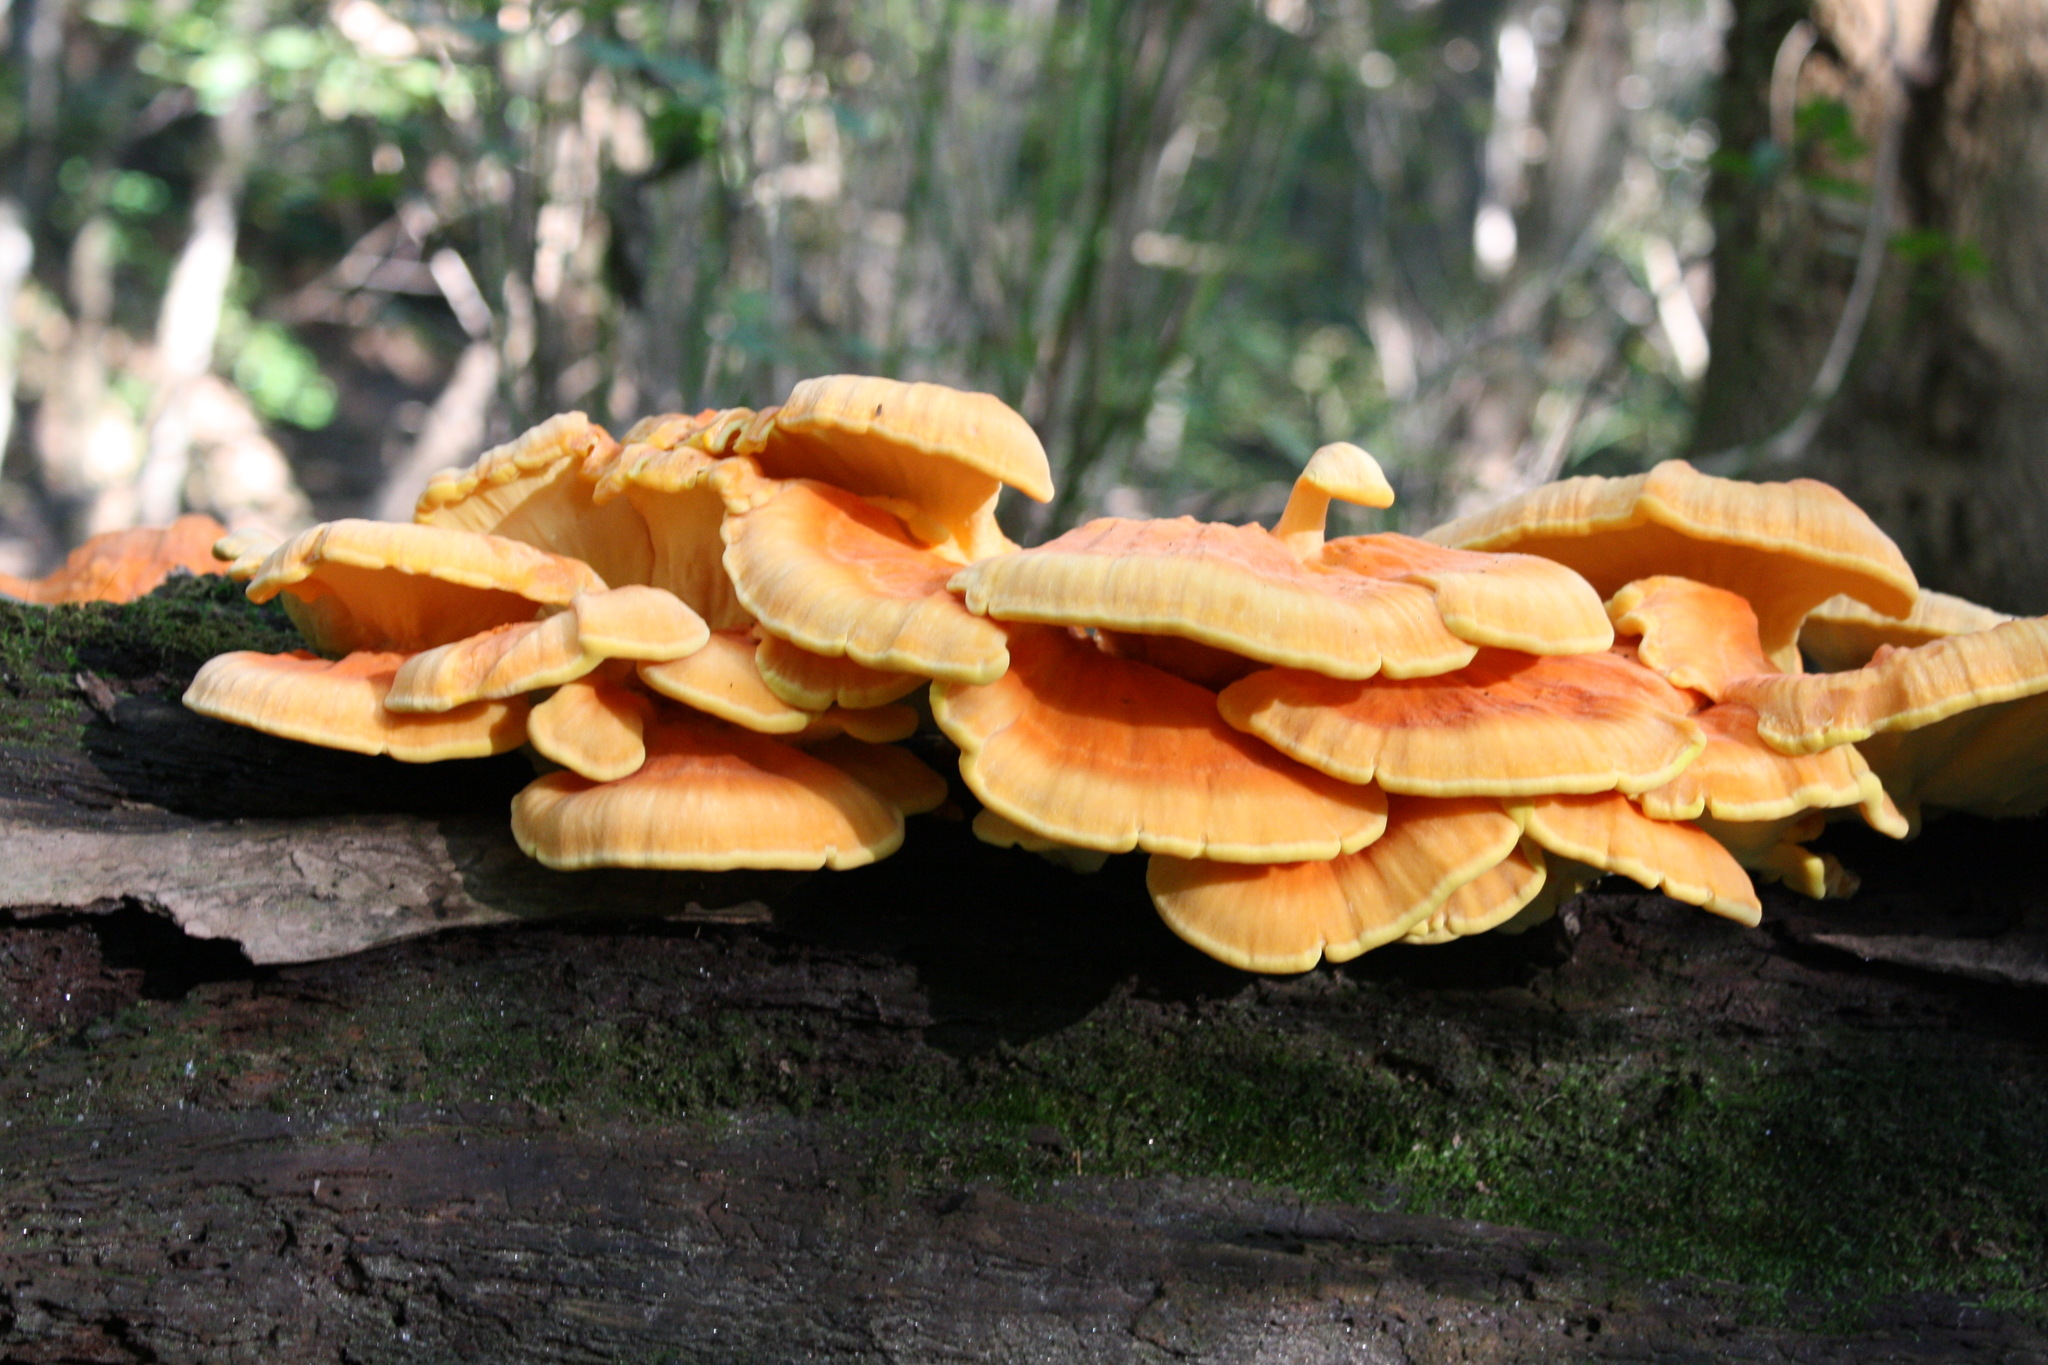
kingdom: Fungi
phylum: Basidiomycota
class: Agaricomycetes
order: Polyporales
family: Laetiporaceae
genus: Laetiporus
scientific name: Laetiporus sulphureus
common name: Chicken of the woods
